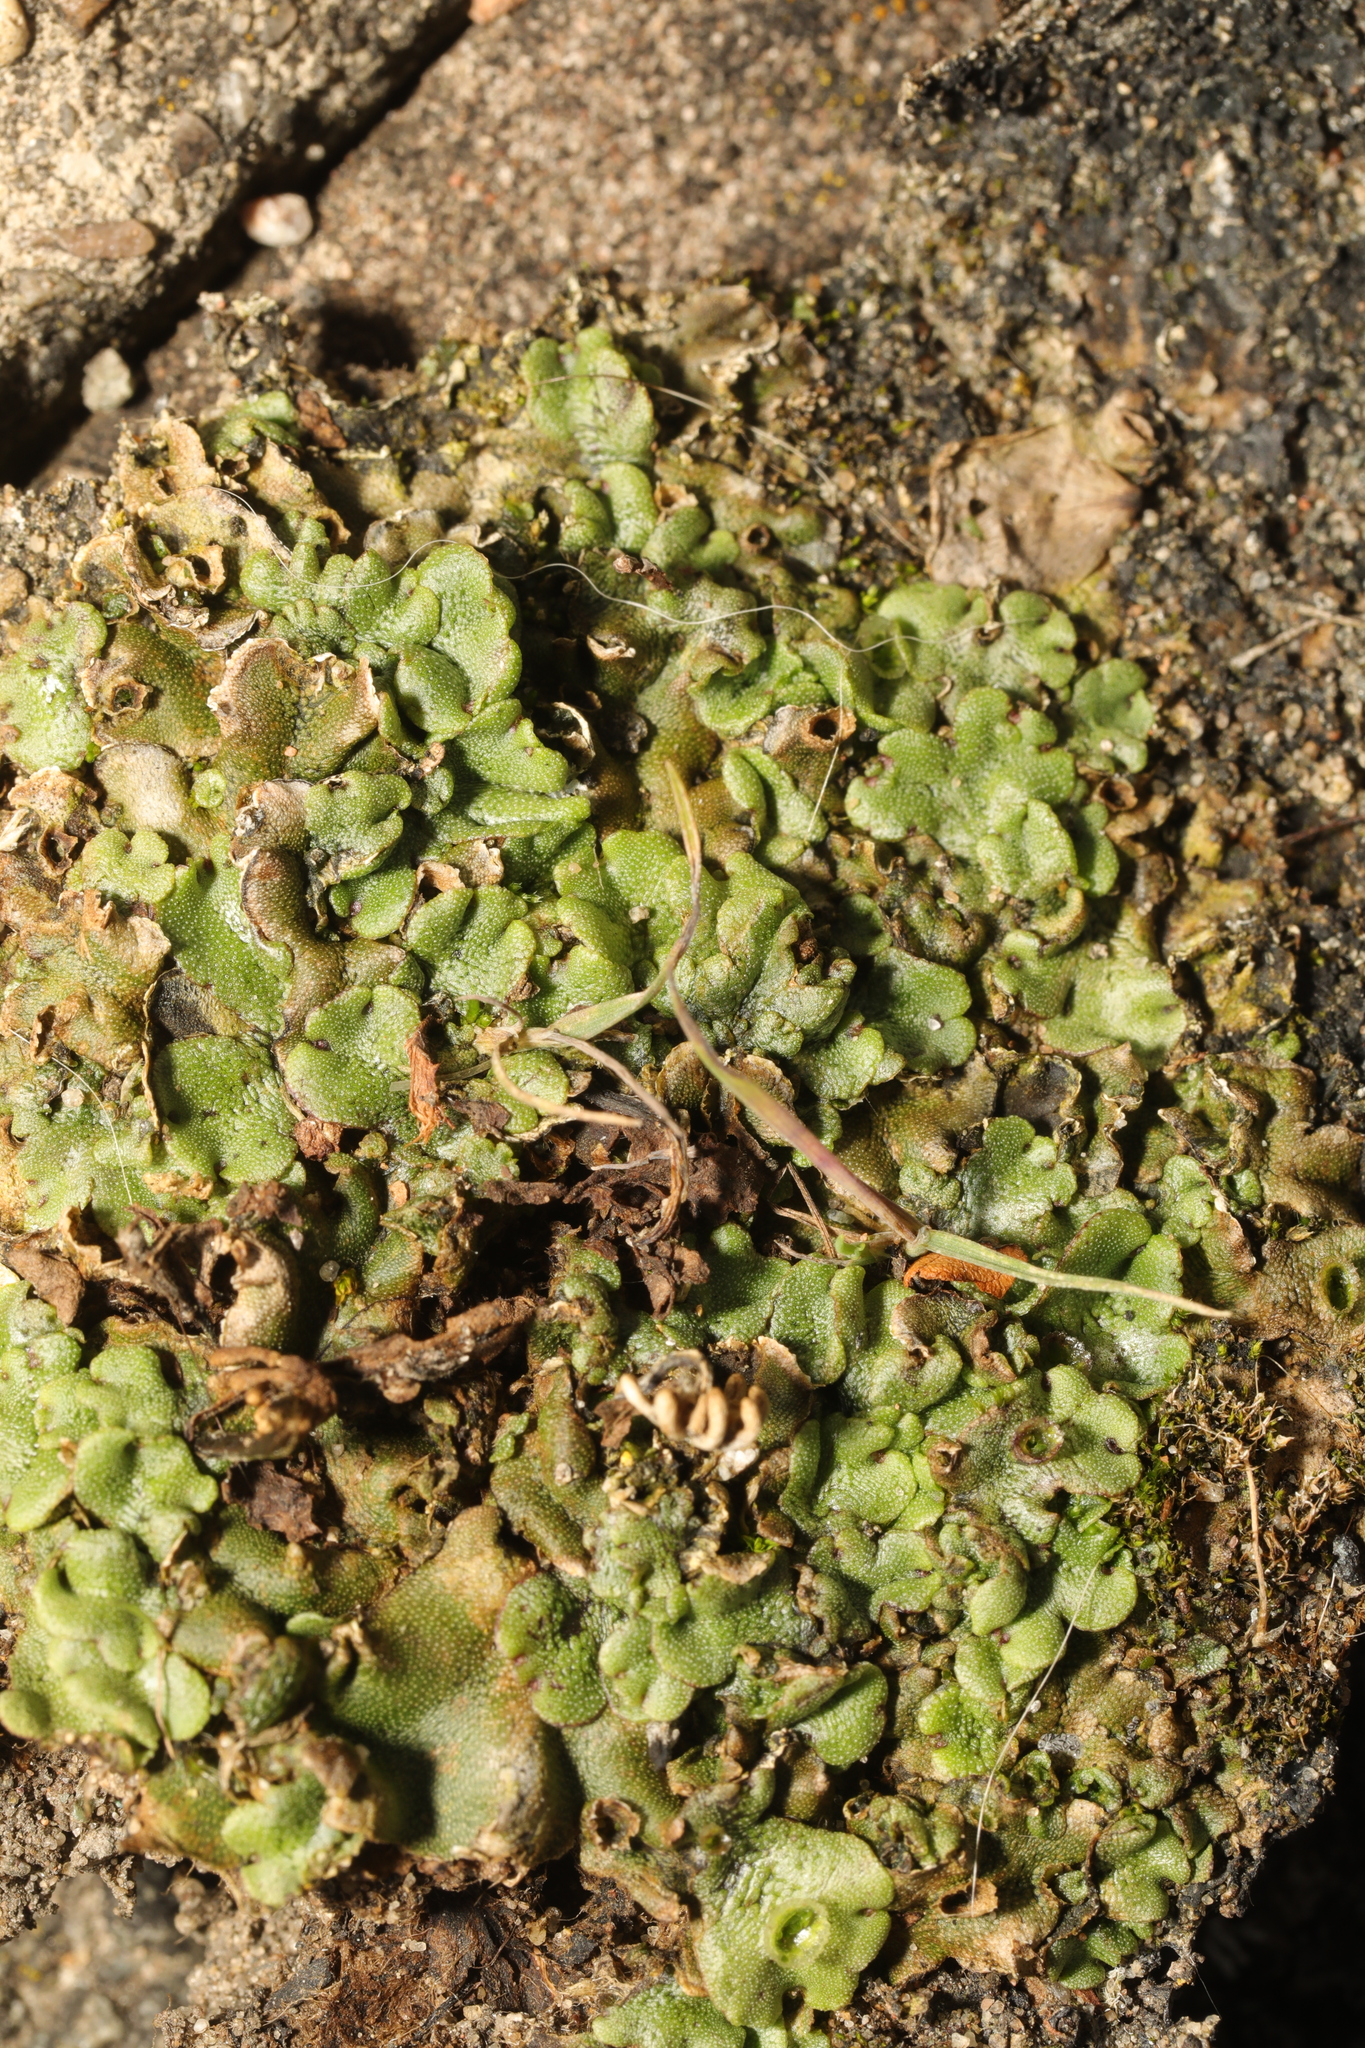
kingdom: Plantae
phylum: Marchantiophyta
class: Marchantiopsida
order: Marchantiales
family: Marchantiaceae
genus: Marchantia
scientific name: Marchantia polymorpha
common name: Common liverwort
